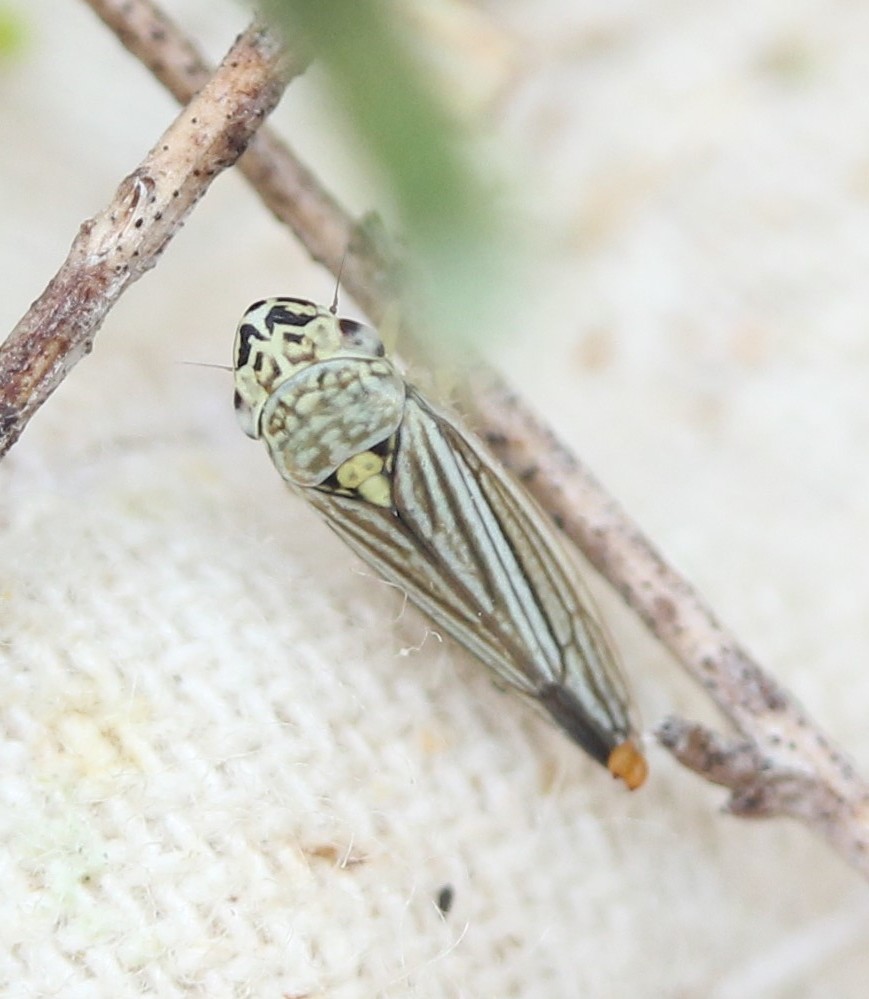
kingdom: Animalia
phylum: Arthropoda
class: Insecta
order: Hemiptera
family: Cicadellidae
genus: Neokolla
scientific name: Neokolla hieroglyphica
